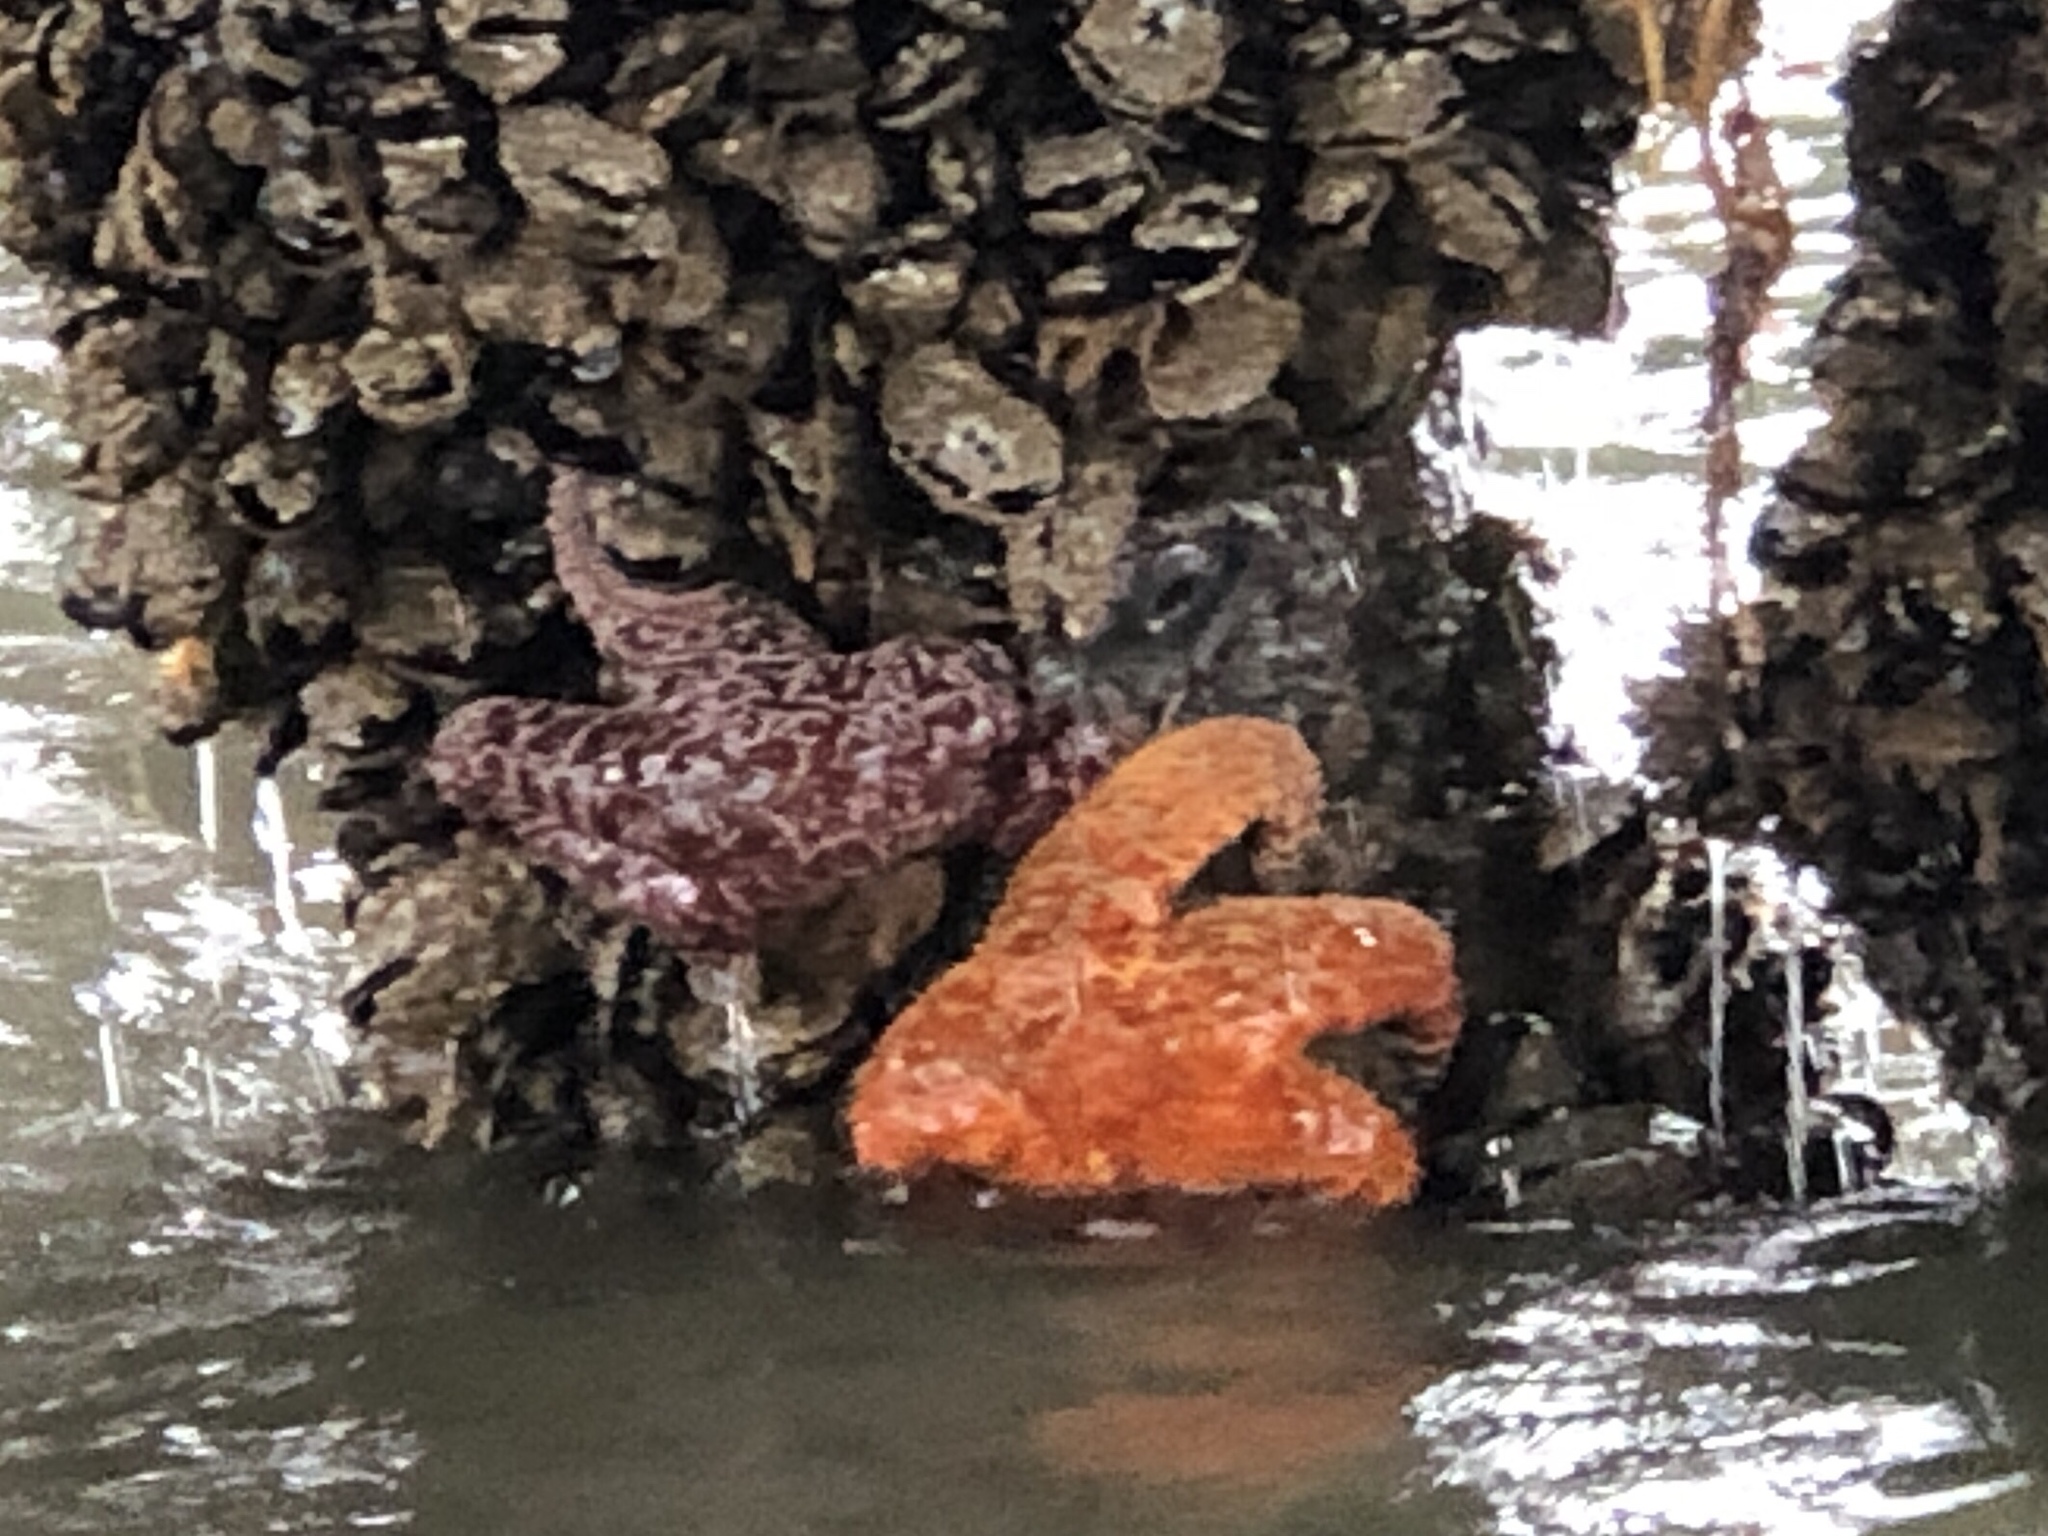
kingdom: Animalia
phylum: Echinodermata
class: Asteroidea
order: Forcipulatida
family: Asteriidae
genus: Pisaster
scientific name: Pisaster ochraceus
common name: Ochre stars
